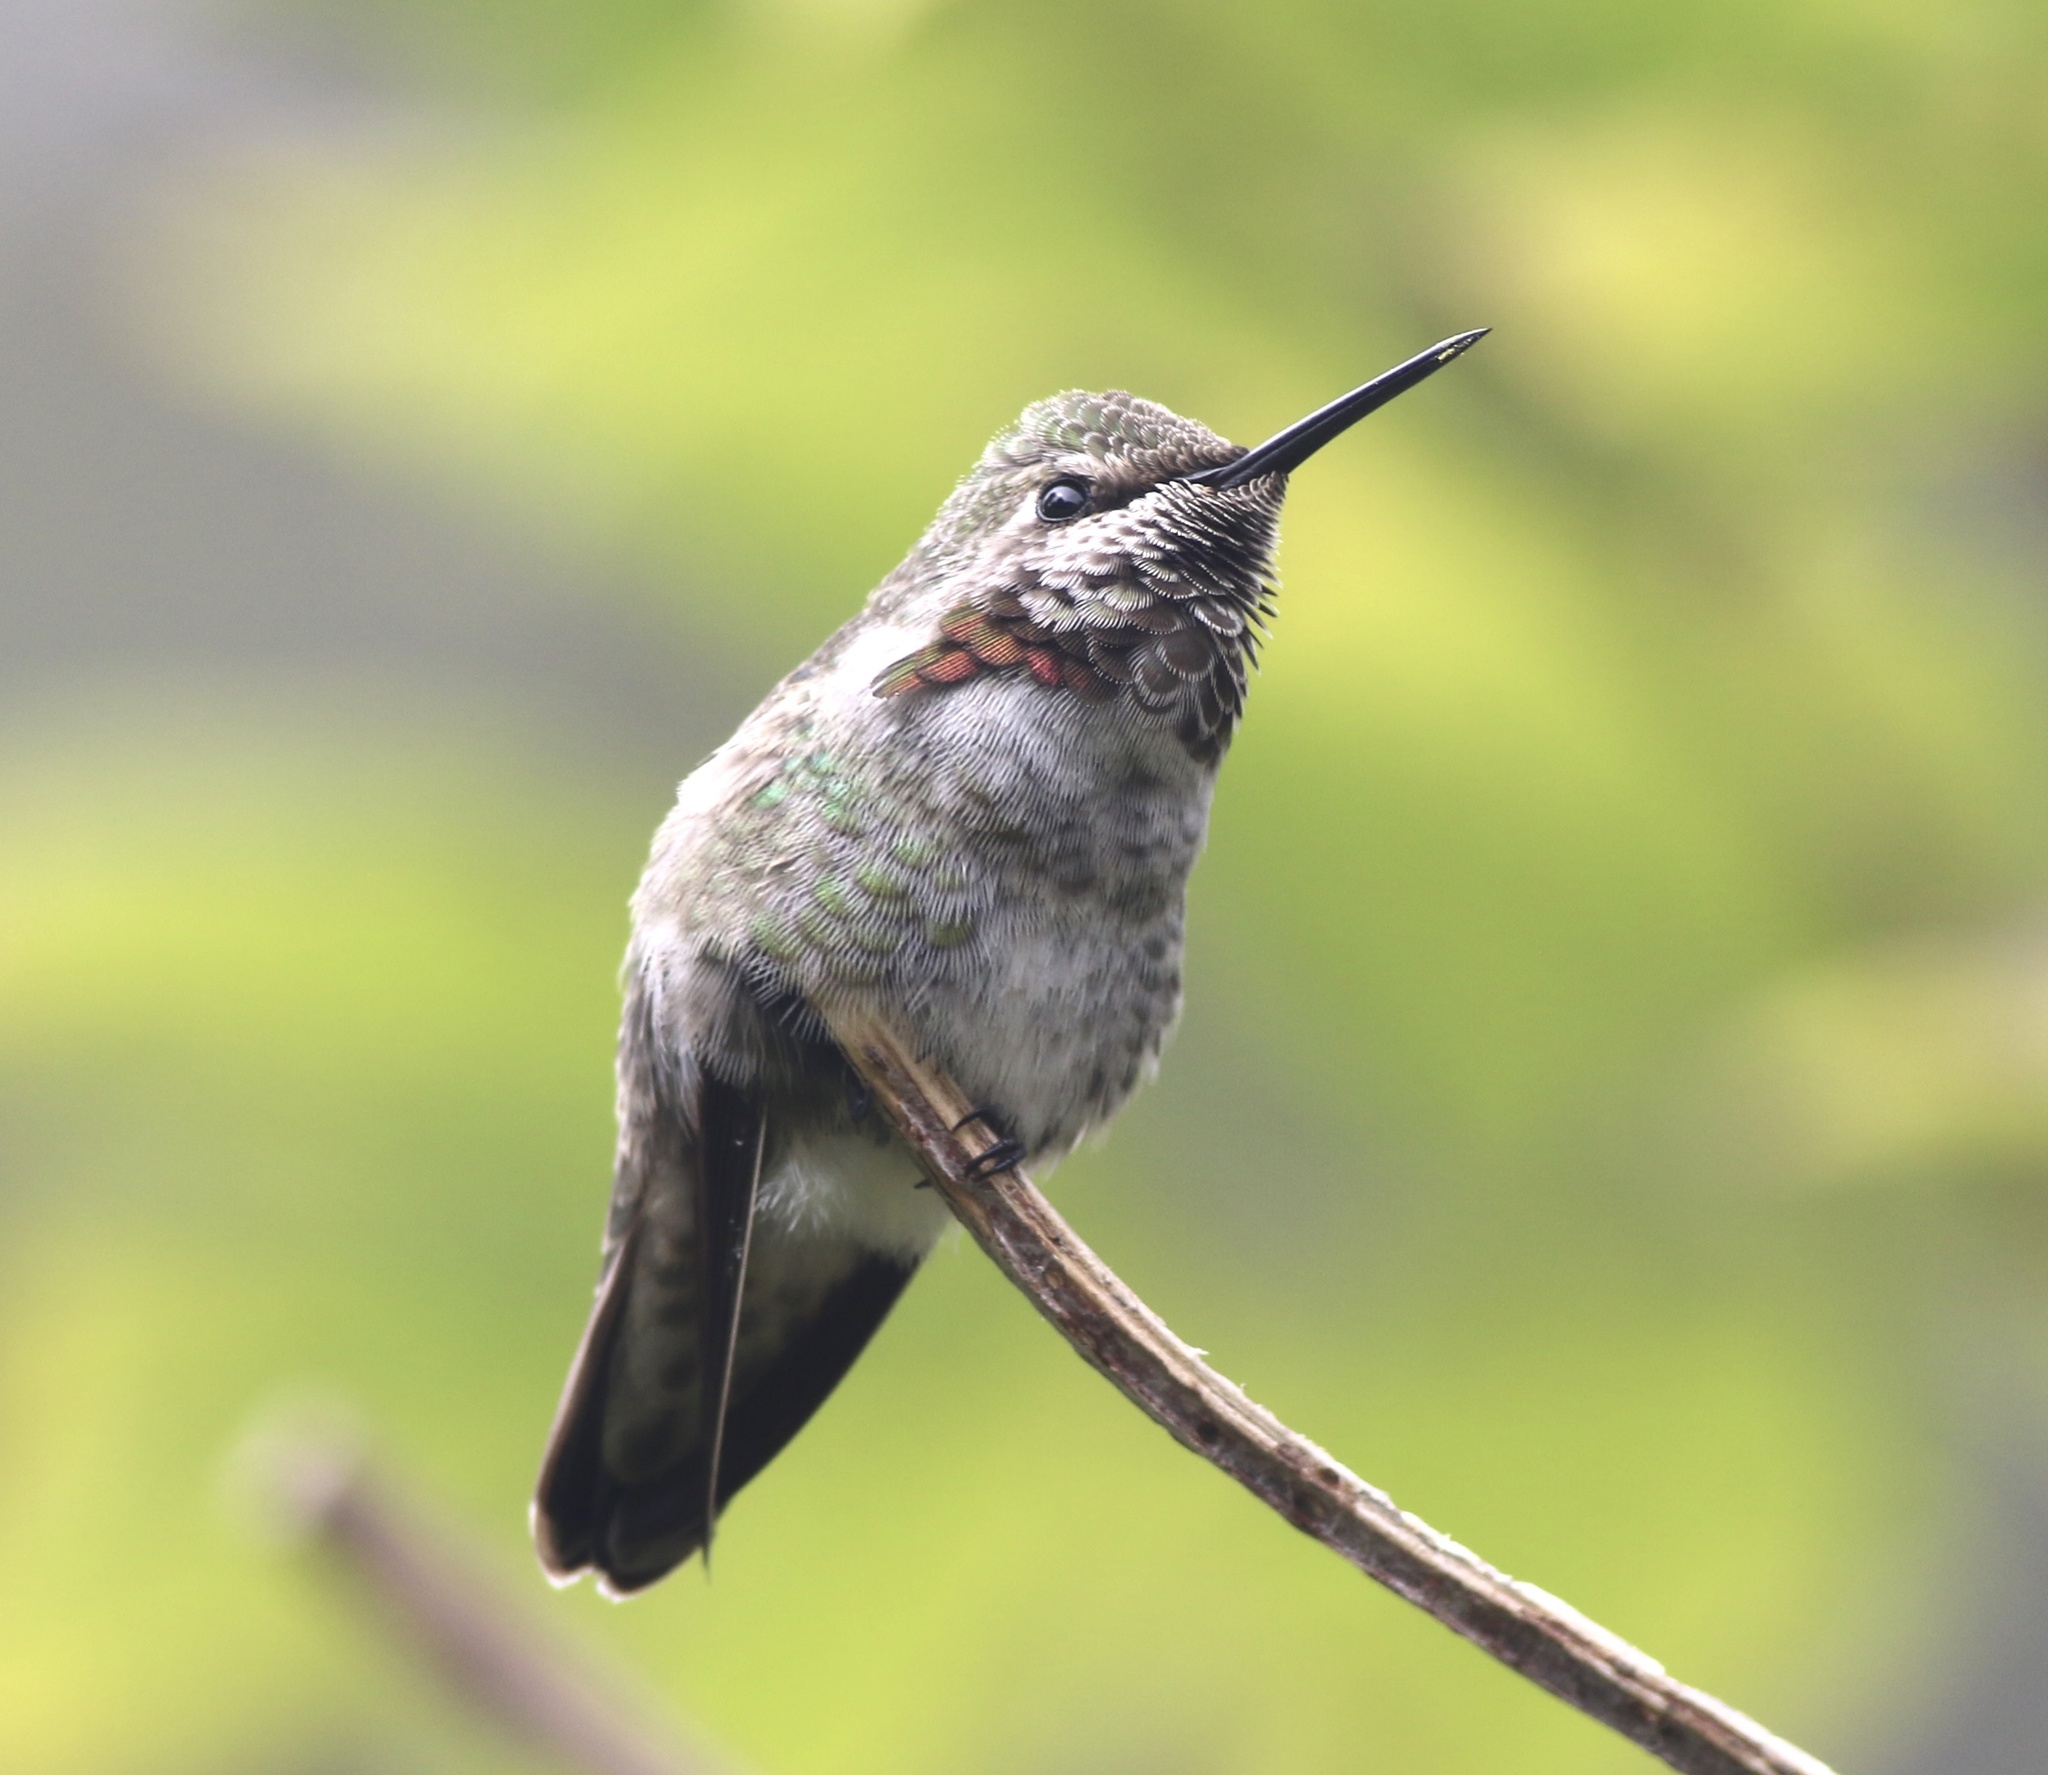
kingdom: Animalia
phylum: Chordata
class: Aves
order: Apodiformes
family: Trochilidae
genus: Calypte
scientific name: Calypte anna
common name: Anna's hummingbird
